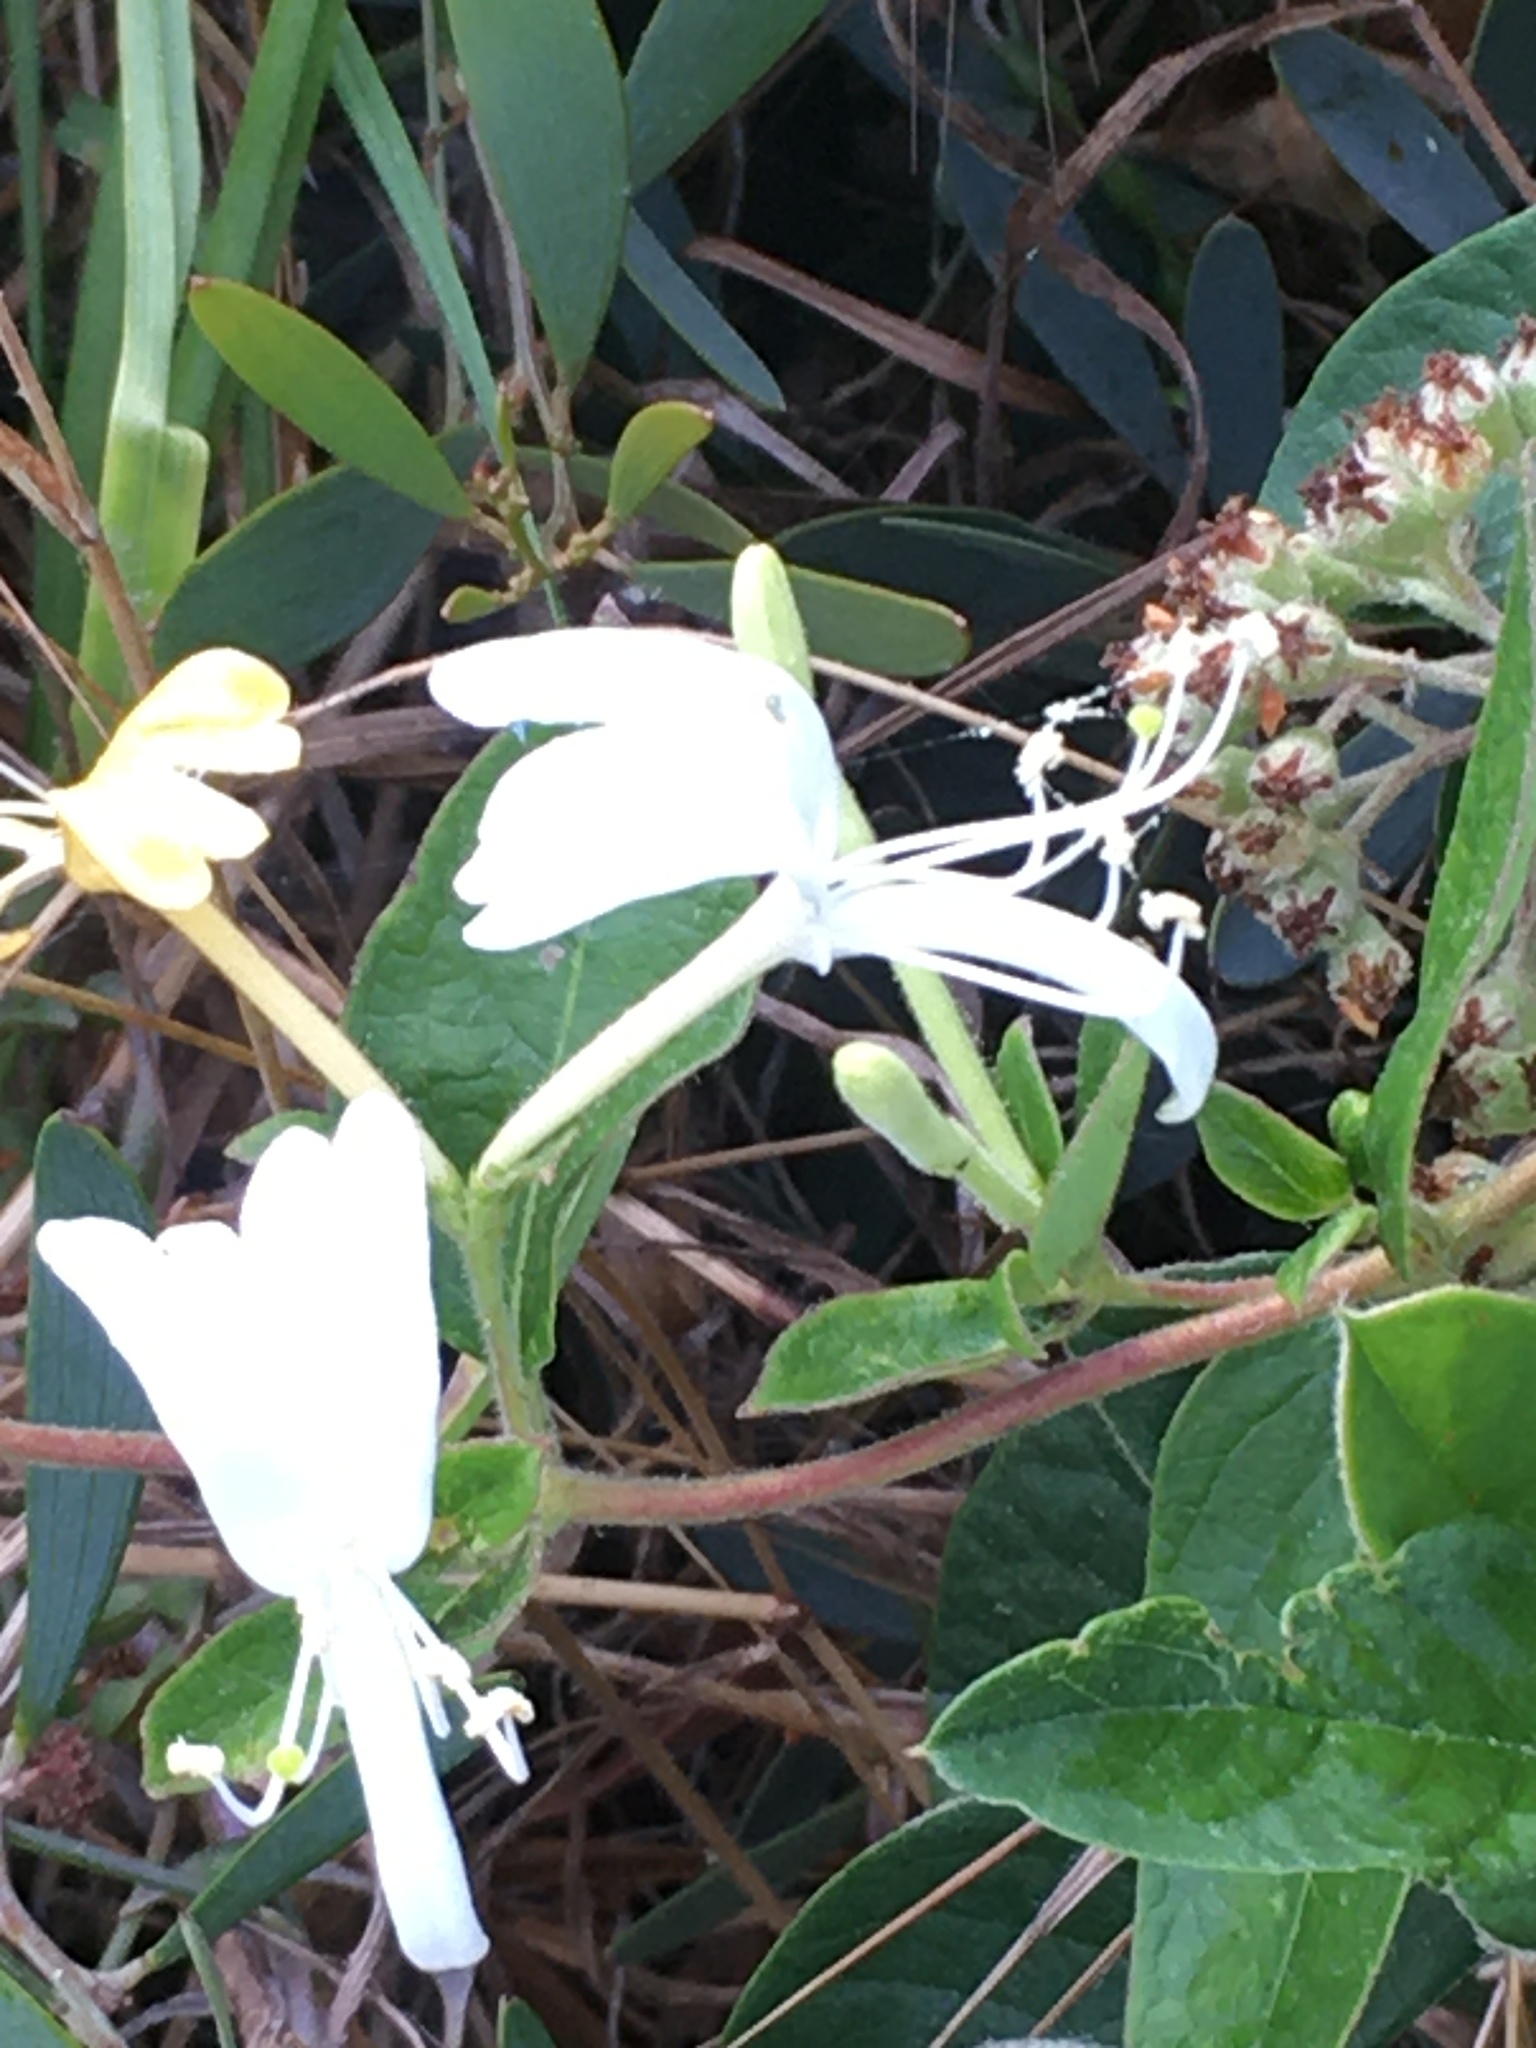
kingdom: Plantae
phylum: Tracheophyta
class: Magnoliopsida
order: Dipsacales
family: Caprifoliaceae
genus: Lonicera
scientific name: Lonicera japonica
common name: Japanese honeysuckle
